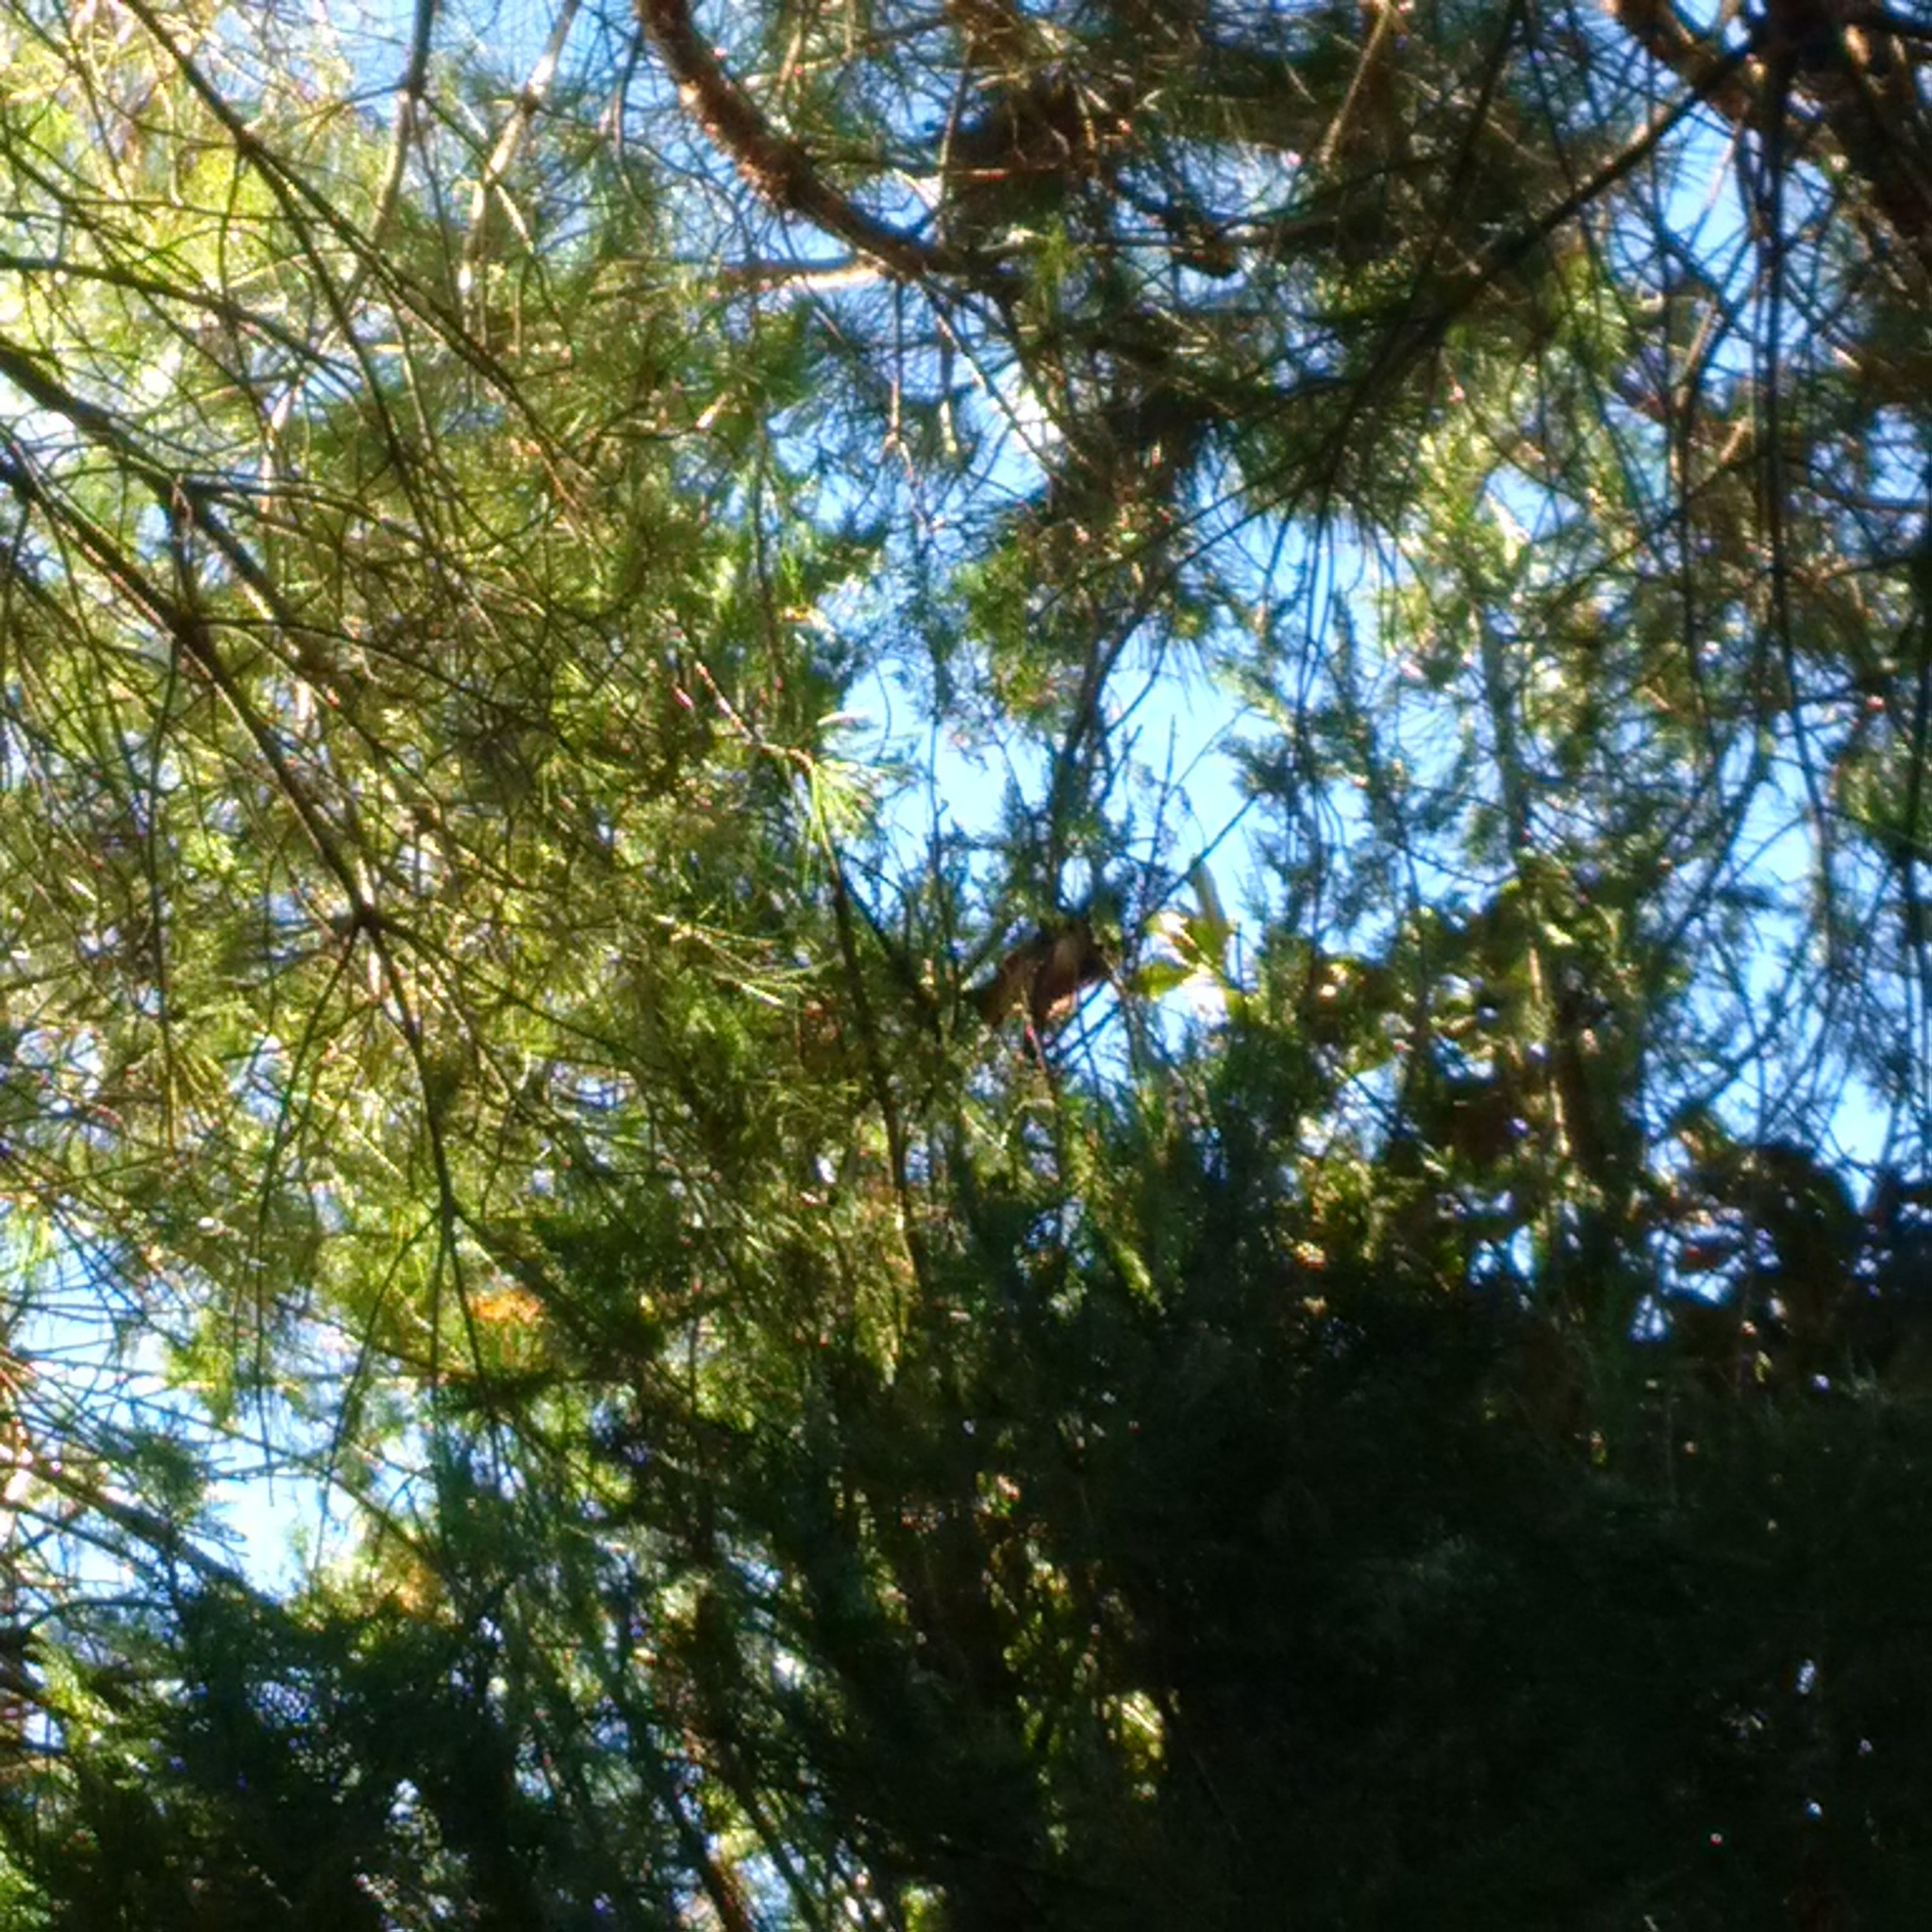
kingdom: Animalia
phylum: Chordata
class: Mammalia
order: Rodentia
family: Sciuridae
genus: Sciurus
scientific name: Sciurus vulgaris
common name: Eurasian red squirrel
